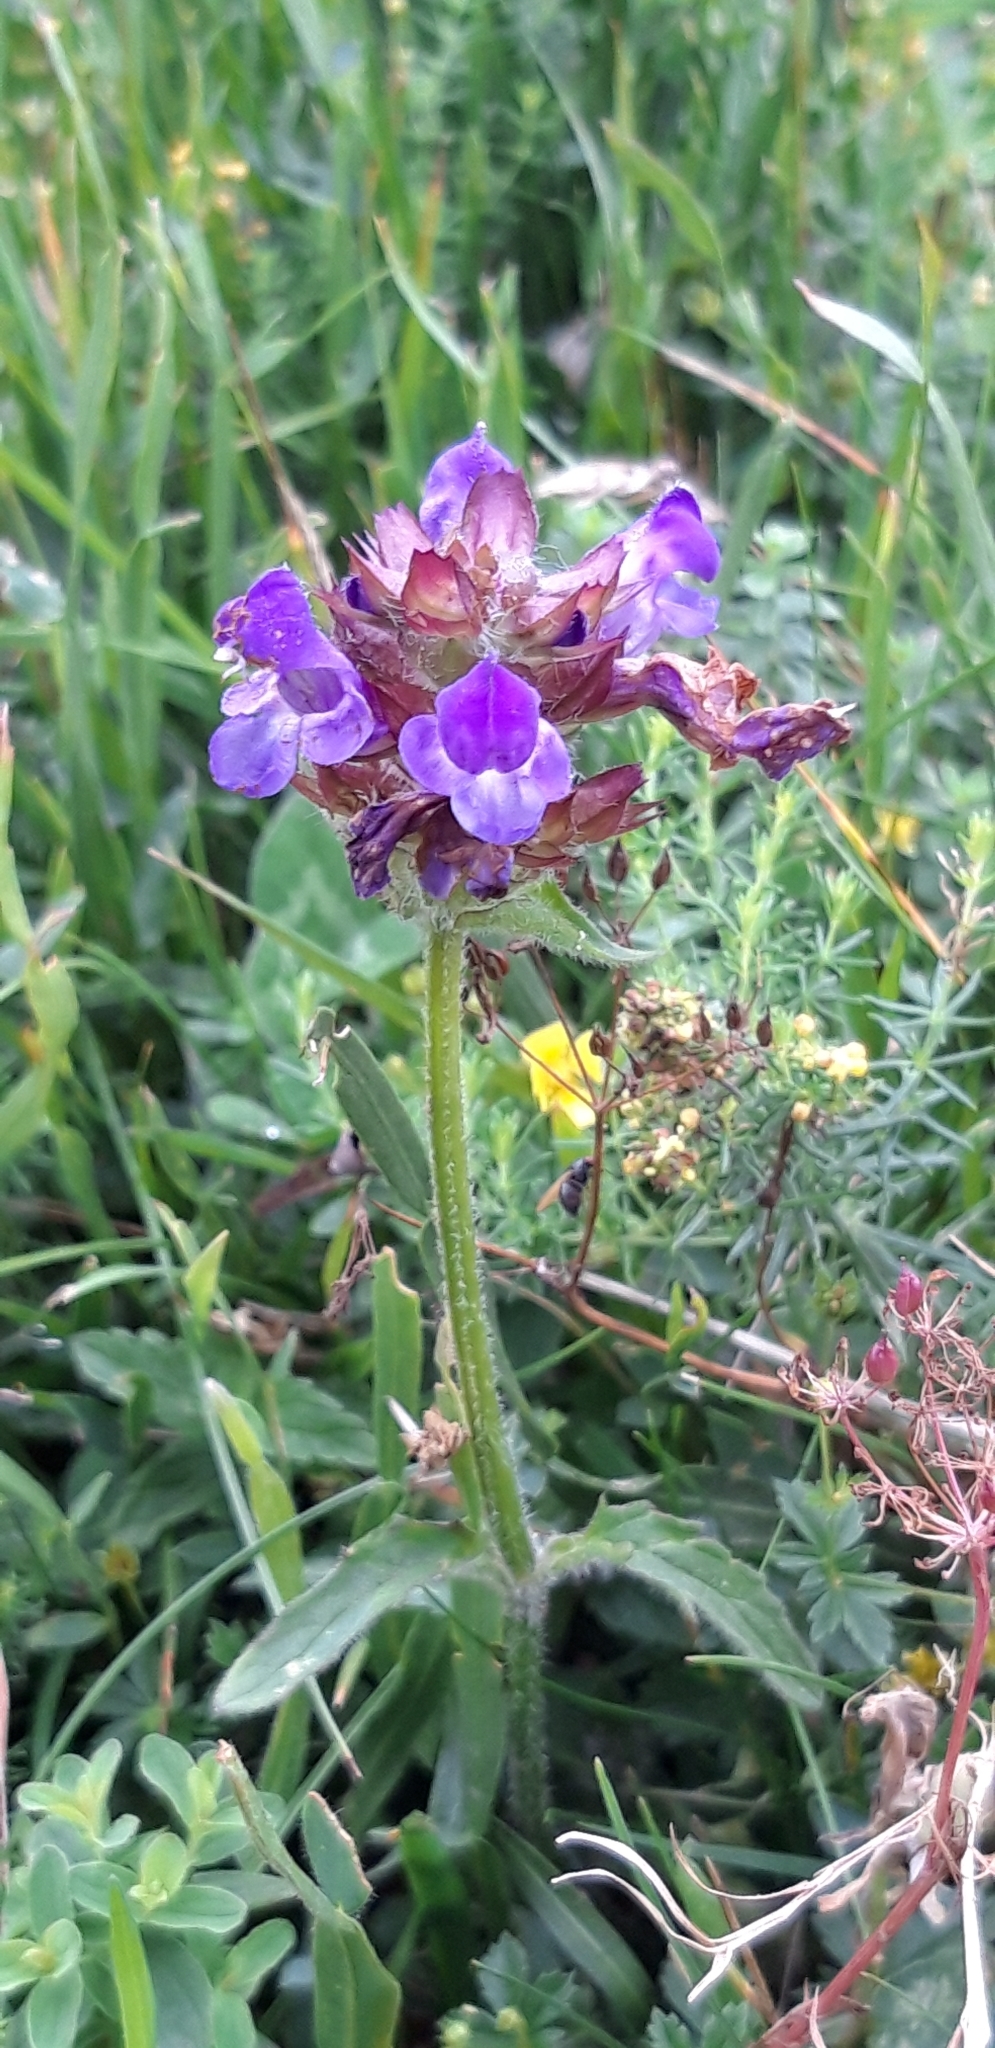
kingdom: Plantae
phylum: Tracheophyta
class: Magnoliopsida
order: Lamiales
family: Lamiaceae
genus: Prunella
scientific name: Prunella grandiflora
